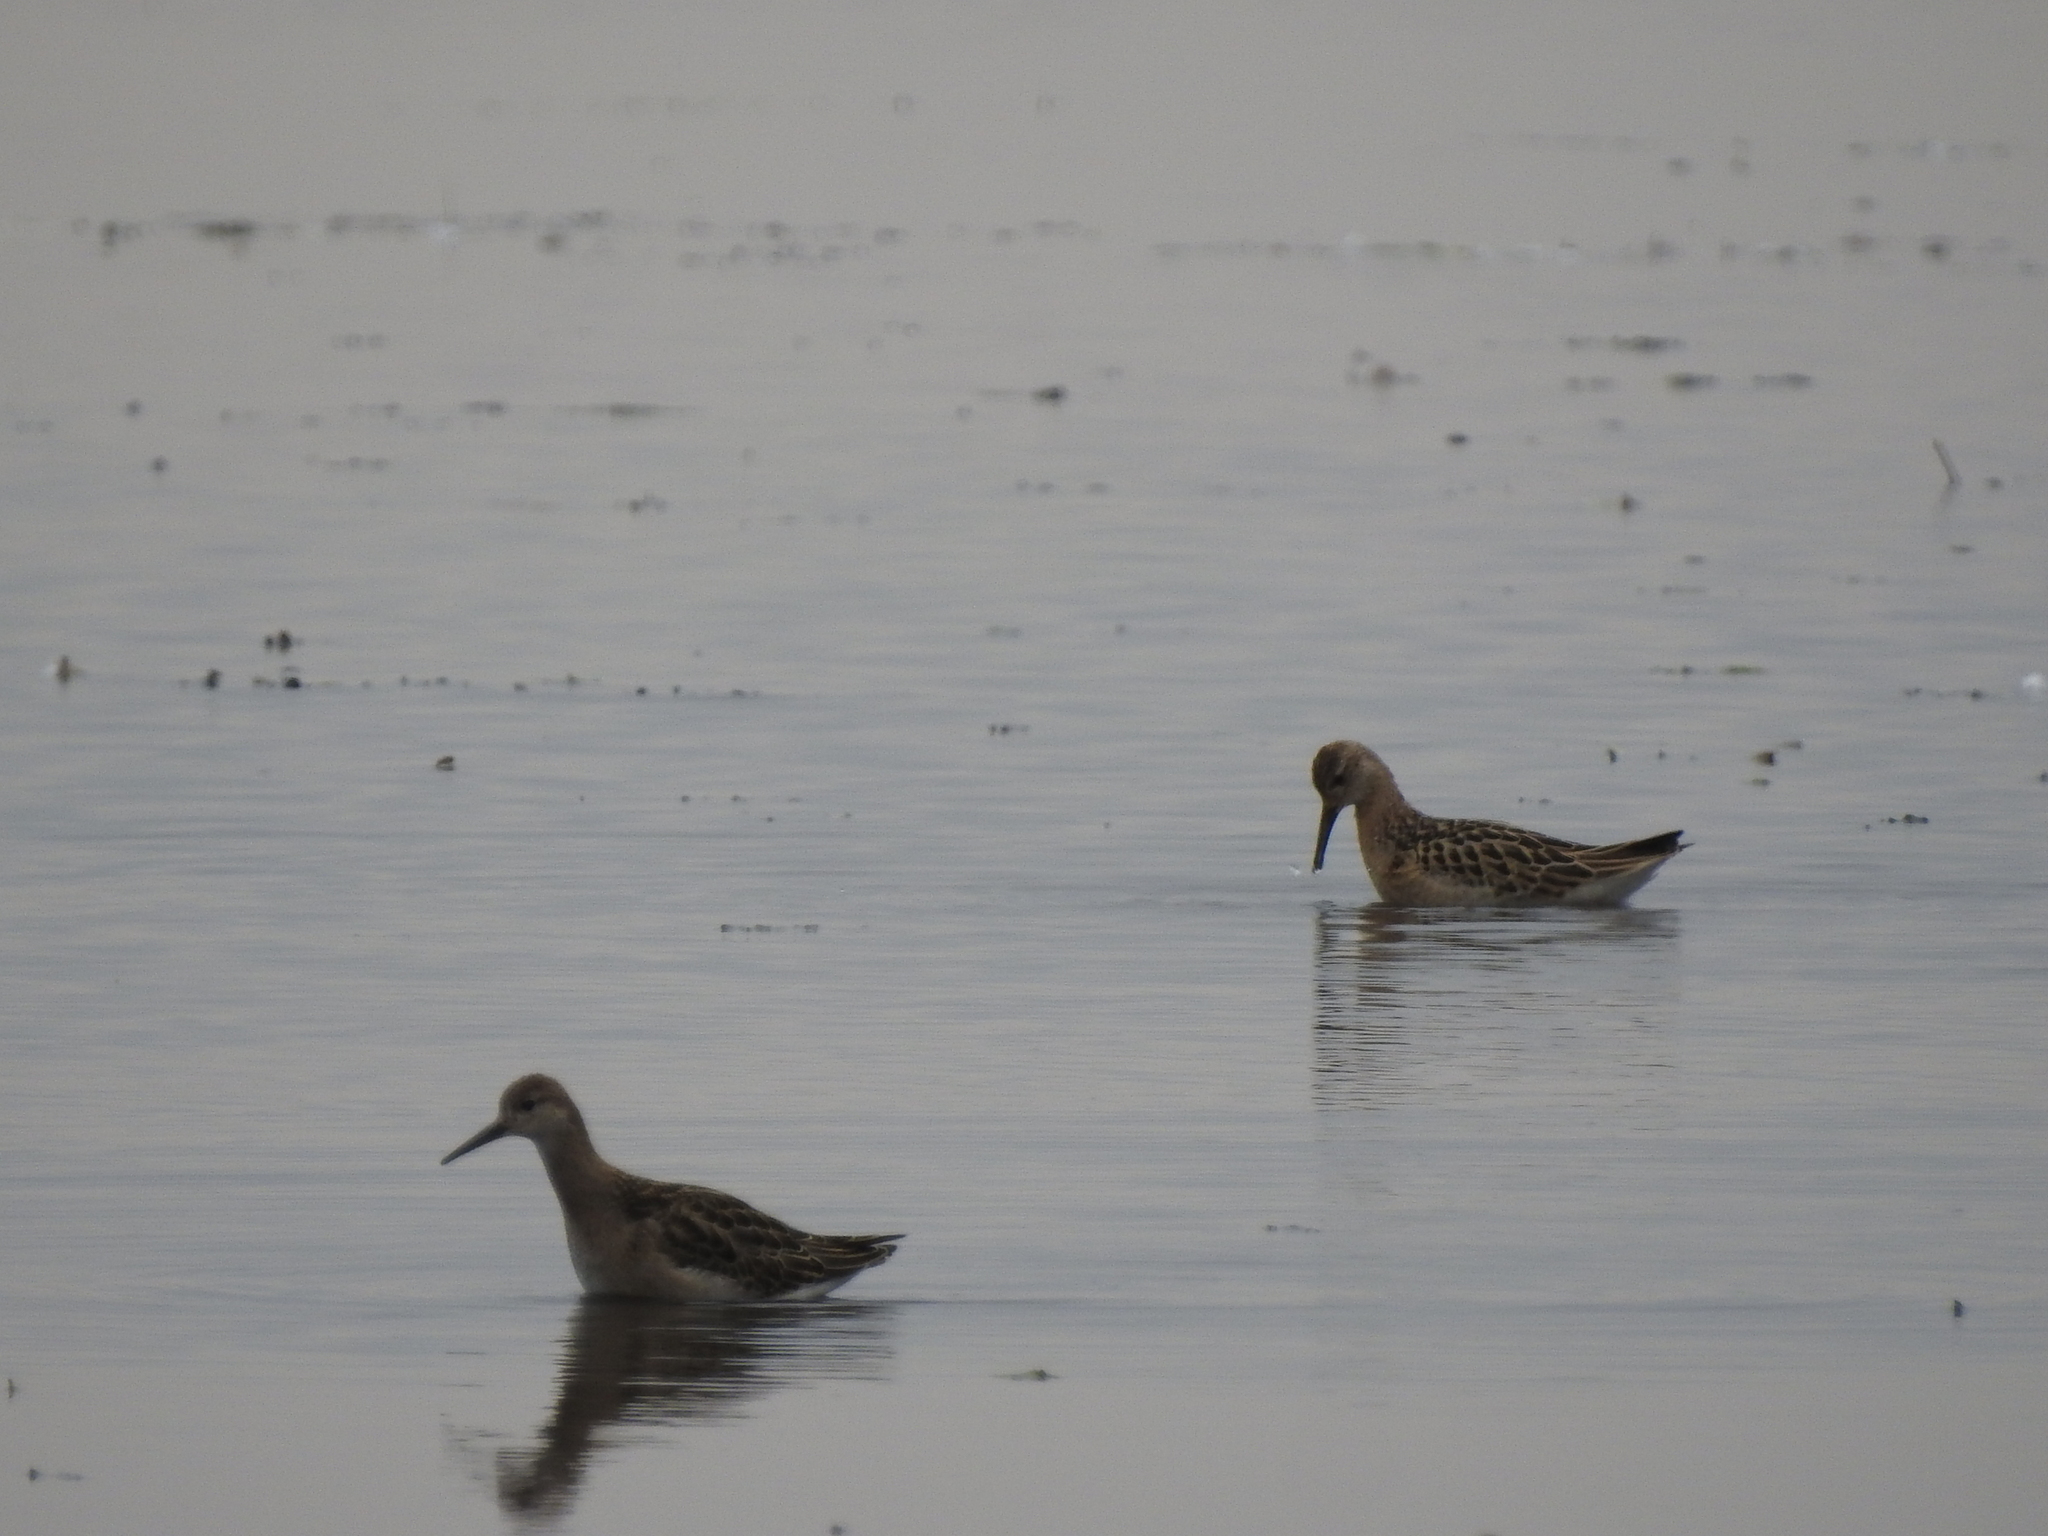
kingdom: Animalia
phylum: Chordata
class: Aves
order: Charadriiformes
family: Scolopacidae
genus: Calidris
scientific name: Calidris pugnax
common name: Ruff
